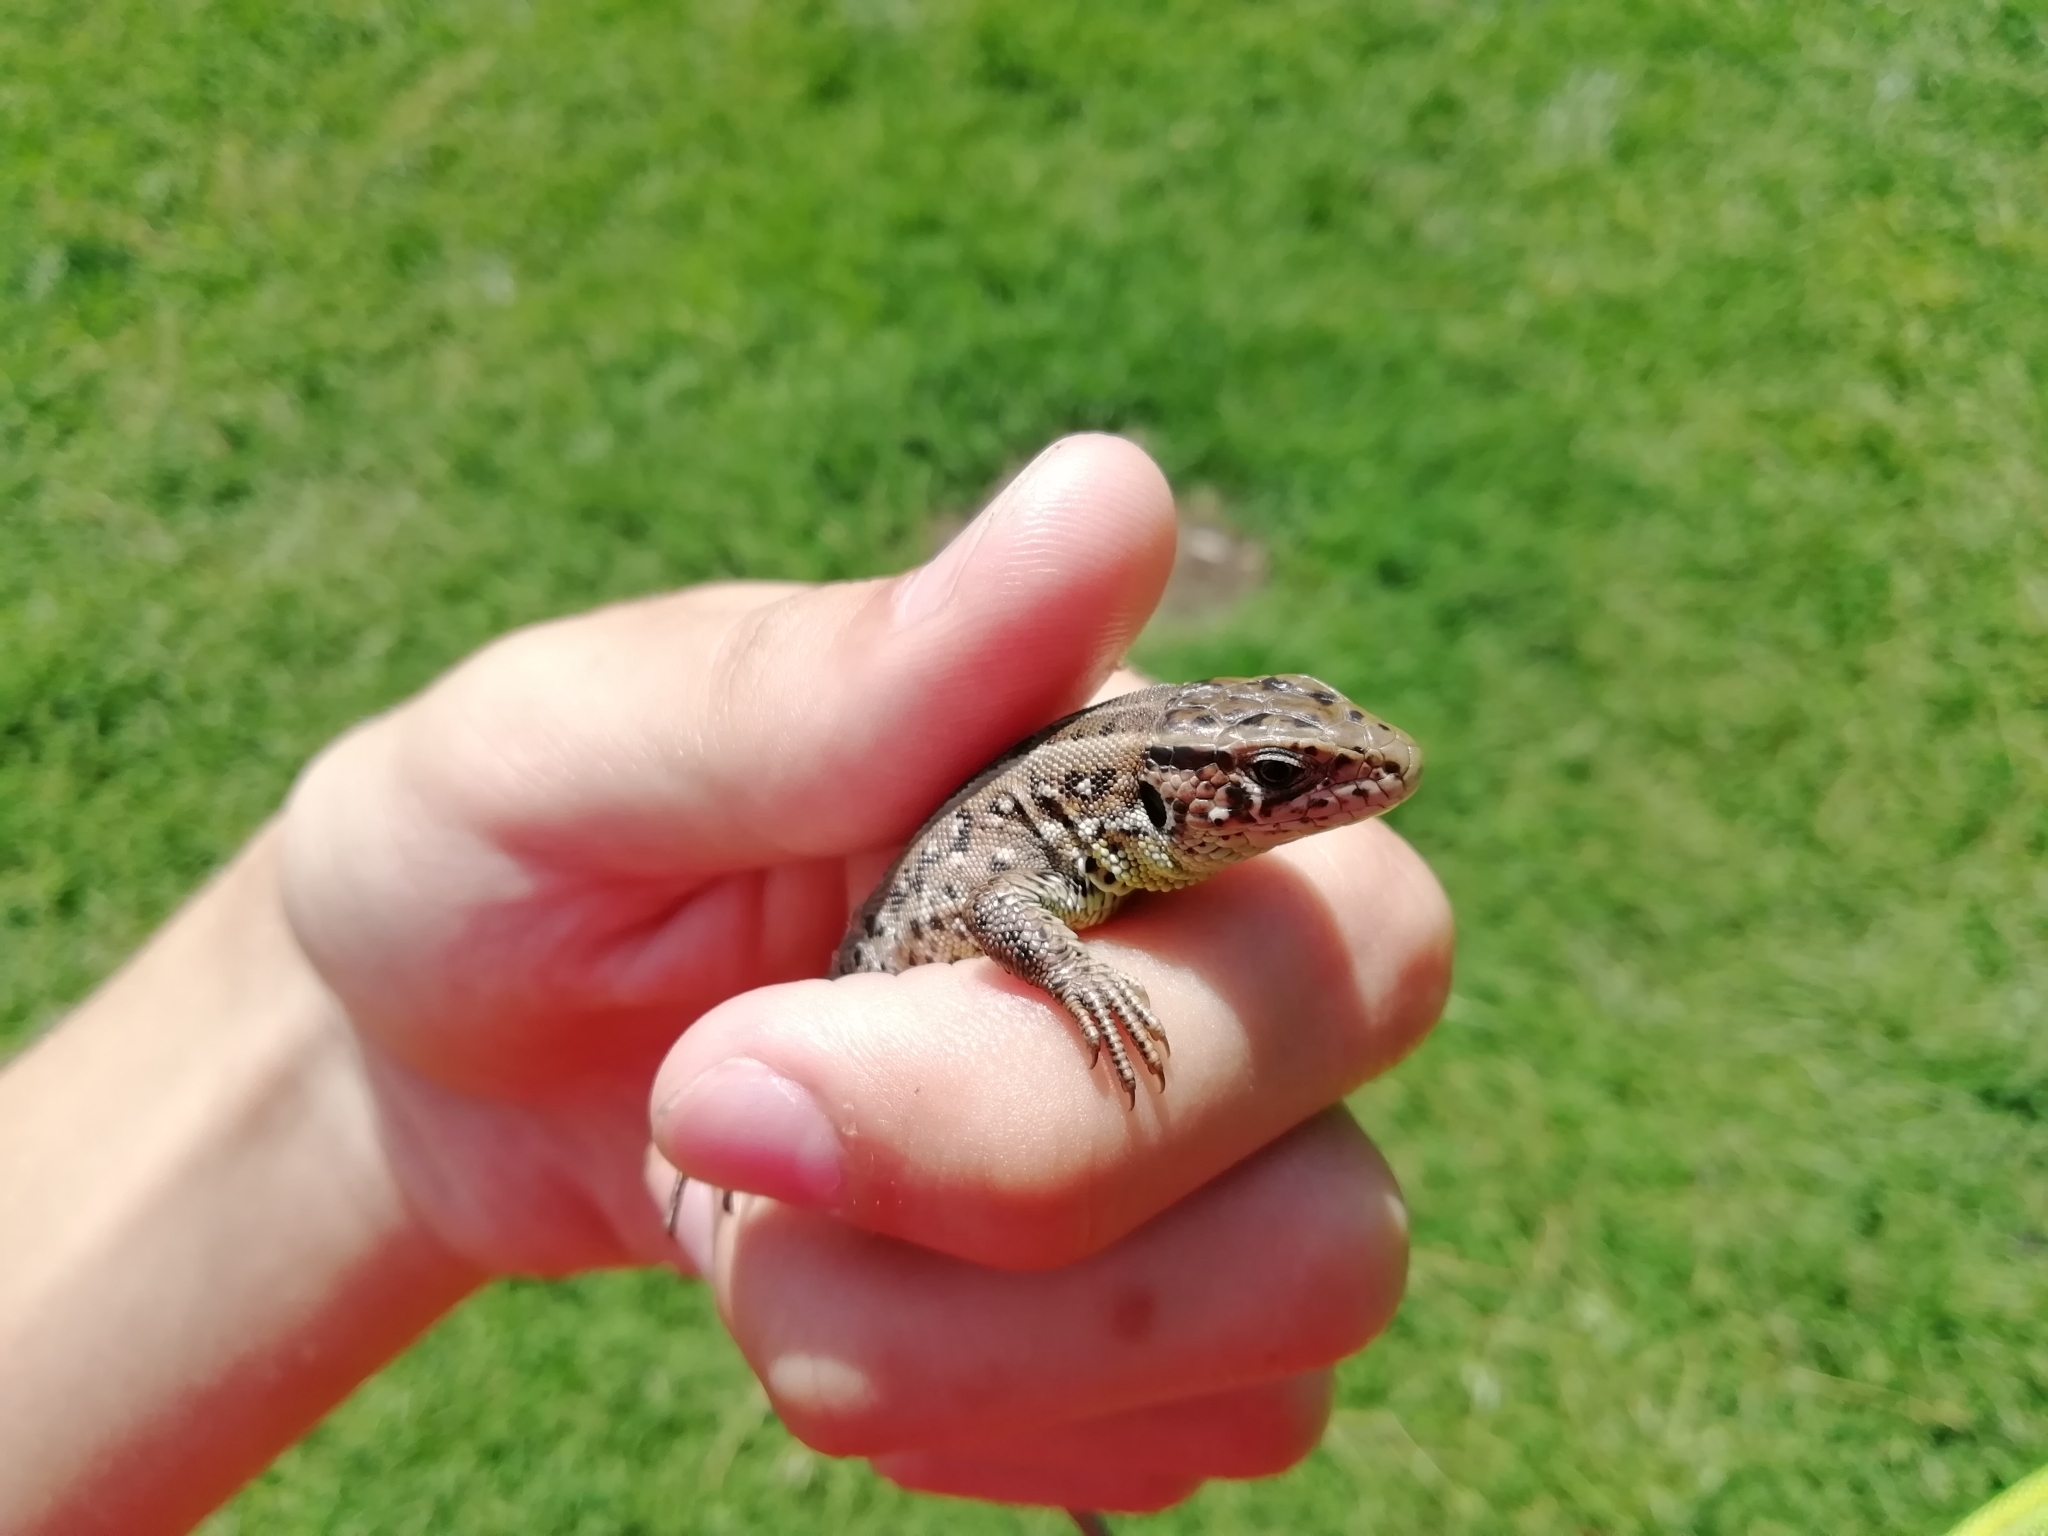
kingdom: Animalia
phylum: Chordata
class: Squamata
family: Lacertidae
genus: Lacerta
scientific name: Lacerta agilis
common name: Sand lizard
